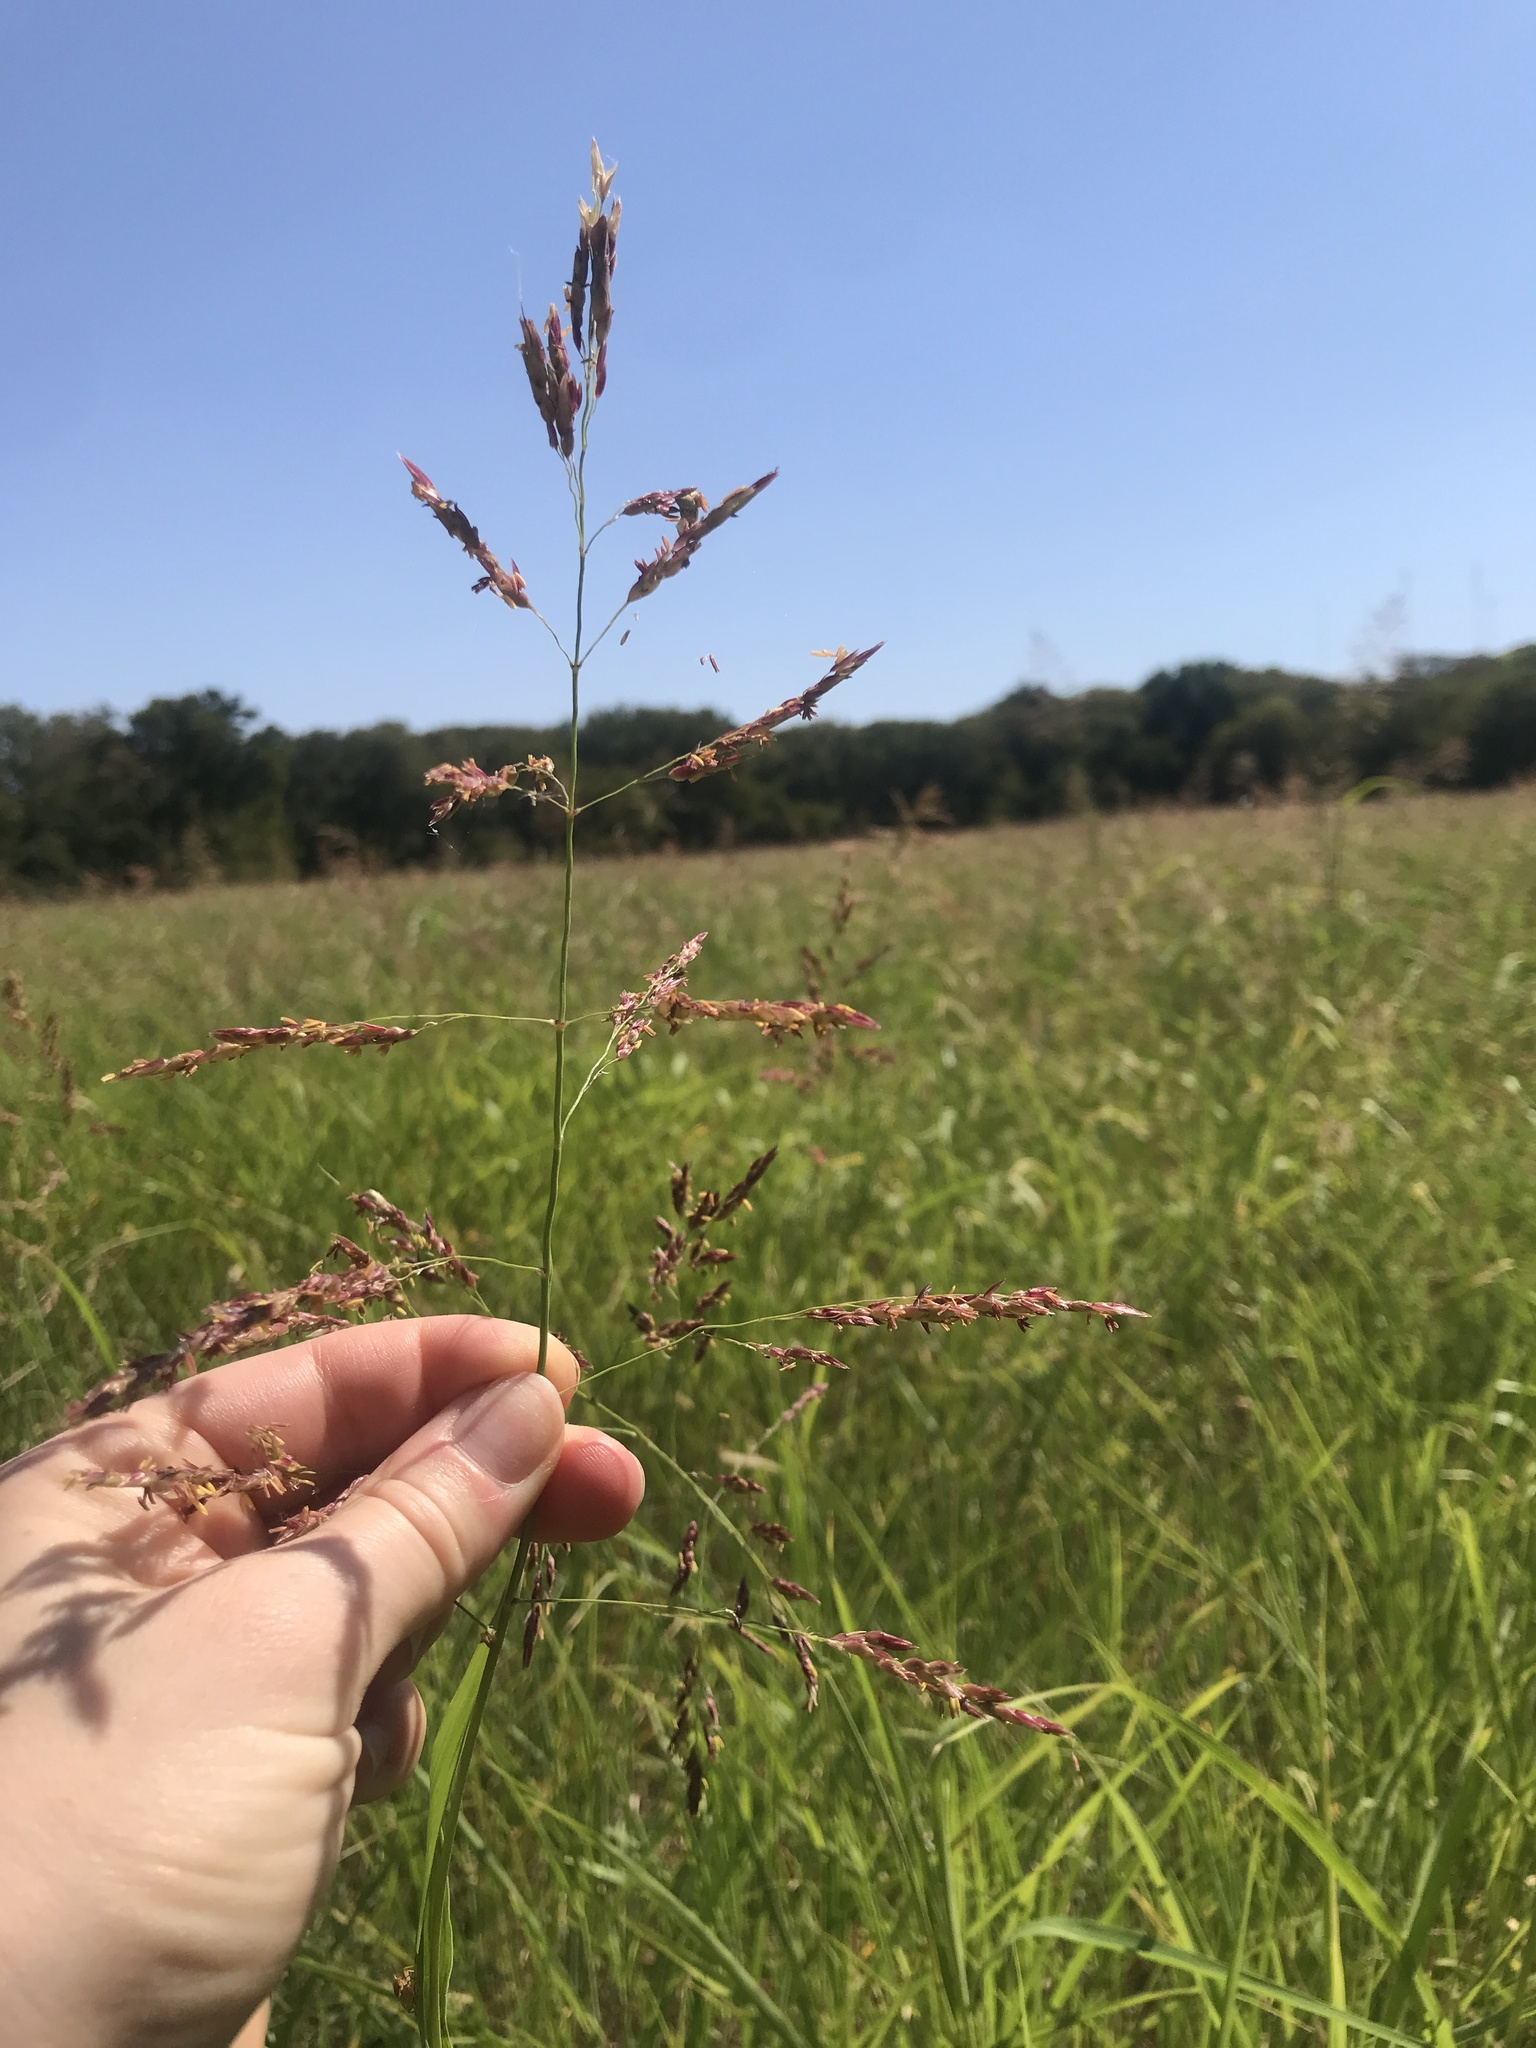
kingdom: Plantae
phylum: Tracheophyta
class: Liliopsida
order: Poales
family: Poaceae
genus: Sorghum
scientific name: Sorghum halepense
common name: Johnson-grass
